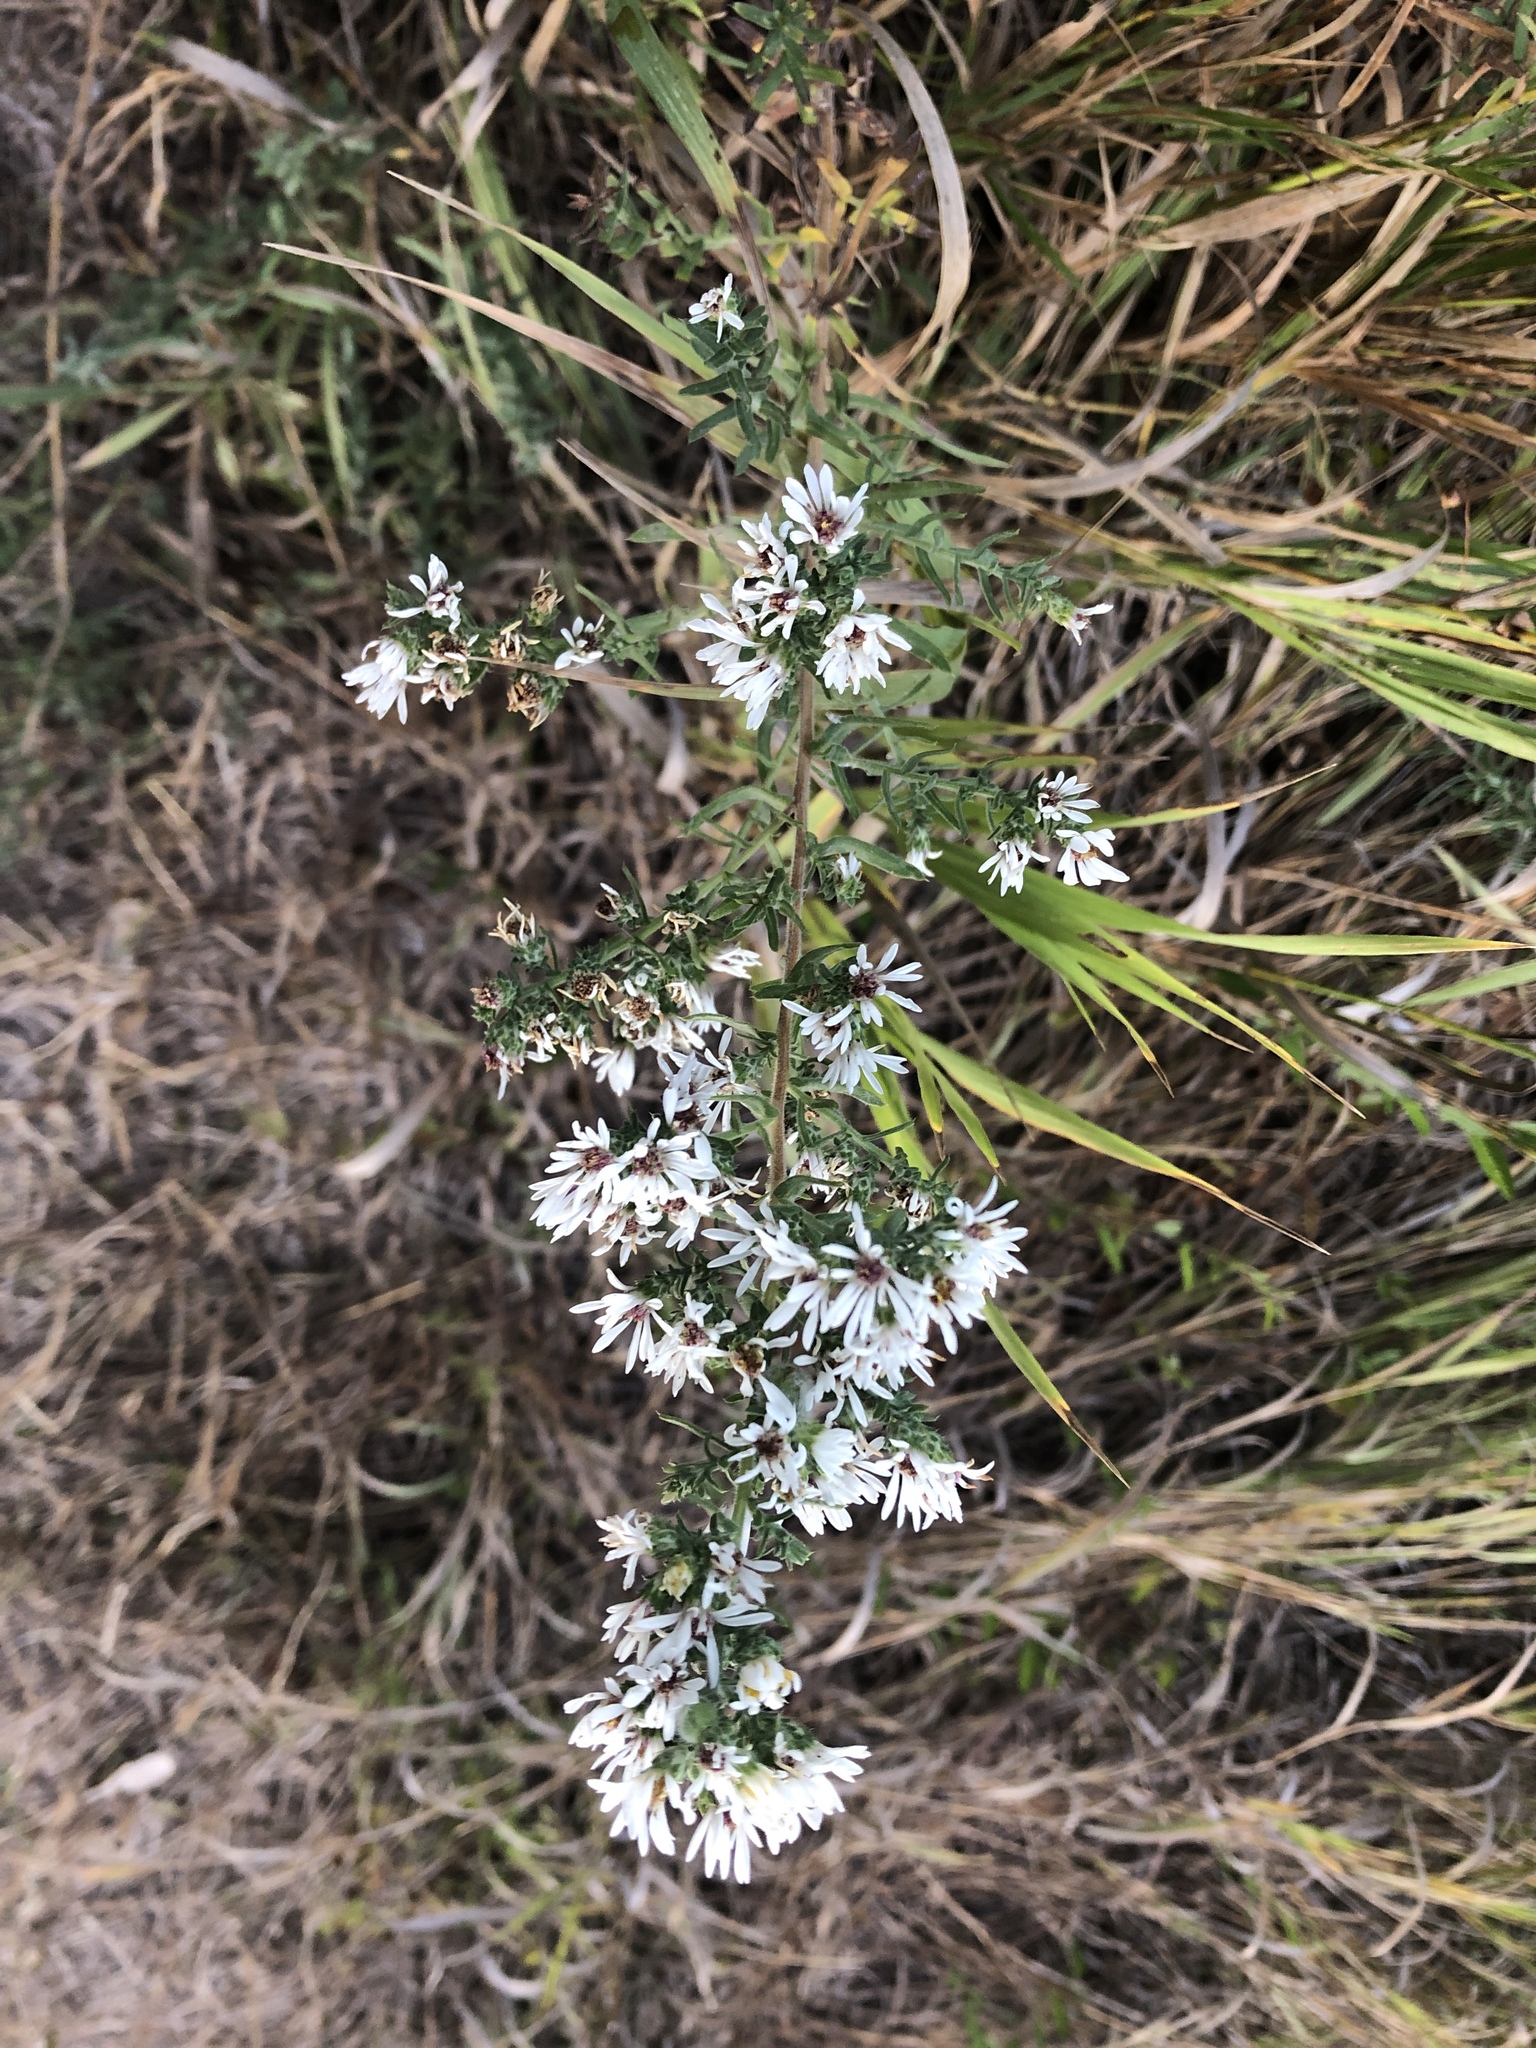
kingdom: Plantae
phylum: Tracheophyta
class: Magnoliopsida
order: Asterales
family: Asteraceae
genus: Symphyotrichum
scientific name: Symphyotrichum ericoides
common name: Heath aster
